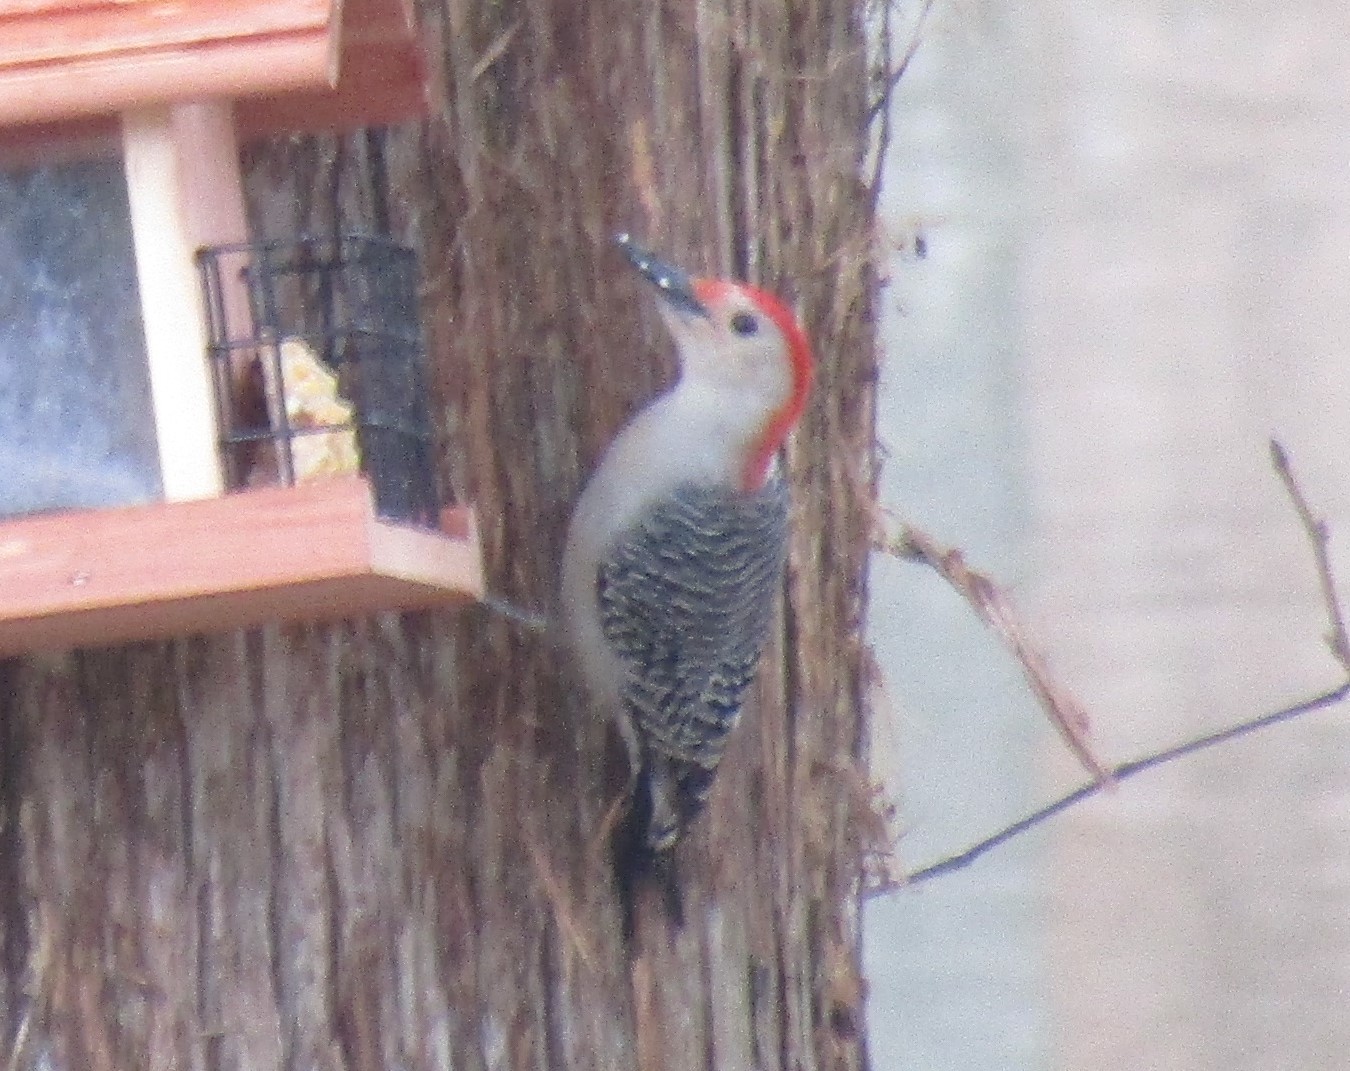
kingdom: Animalia
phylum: Chordata
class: Aves
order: Piciformes
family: Picidae
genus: Melanerpes
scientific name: Melanerpes carolinus
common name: Red-bellied woodpecker
